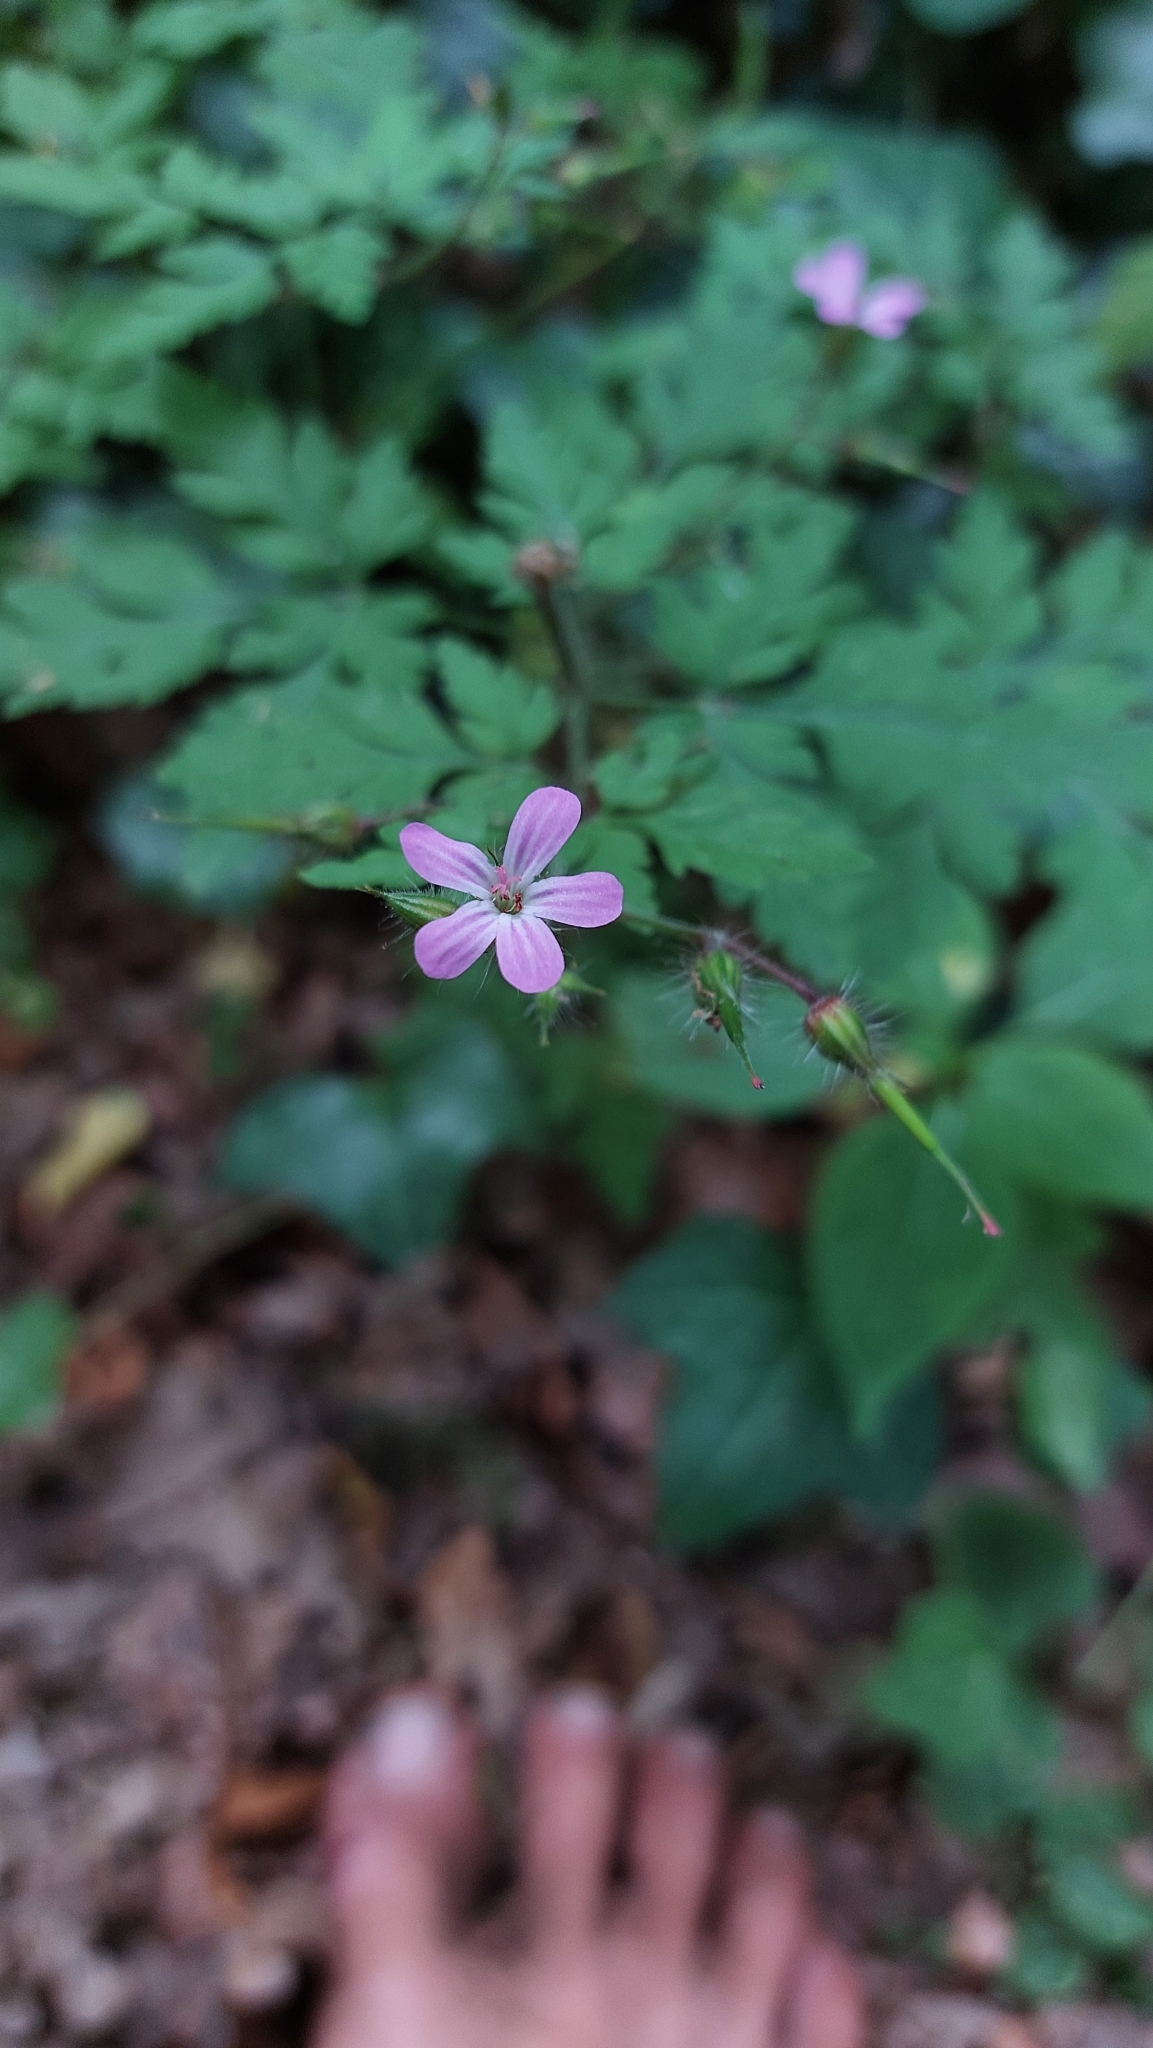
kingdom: Plantae
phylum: Tracheophyta
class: Magnoliopsida
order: Geraniales
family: Geraniaceae
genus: Geranium
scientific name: Geranium robertianum
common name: Herb-robert
